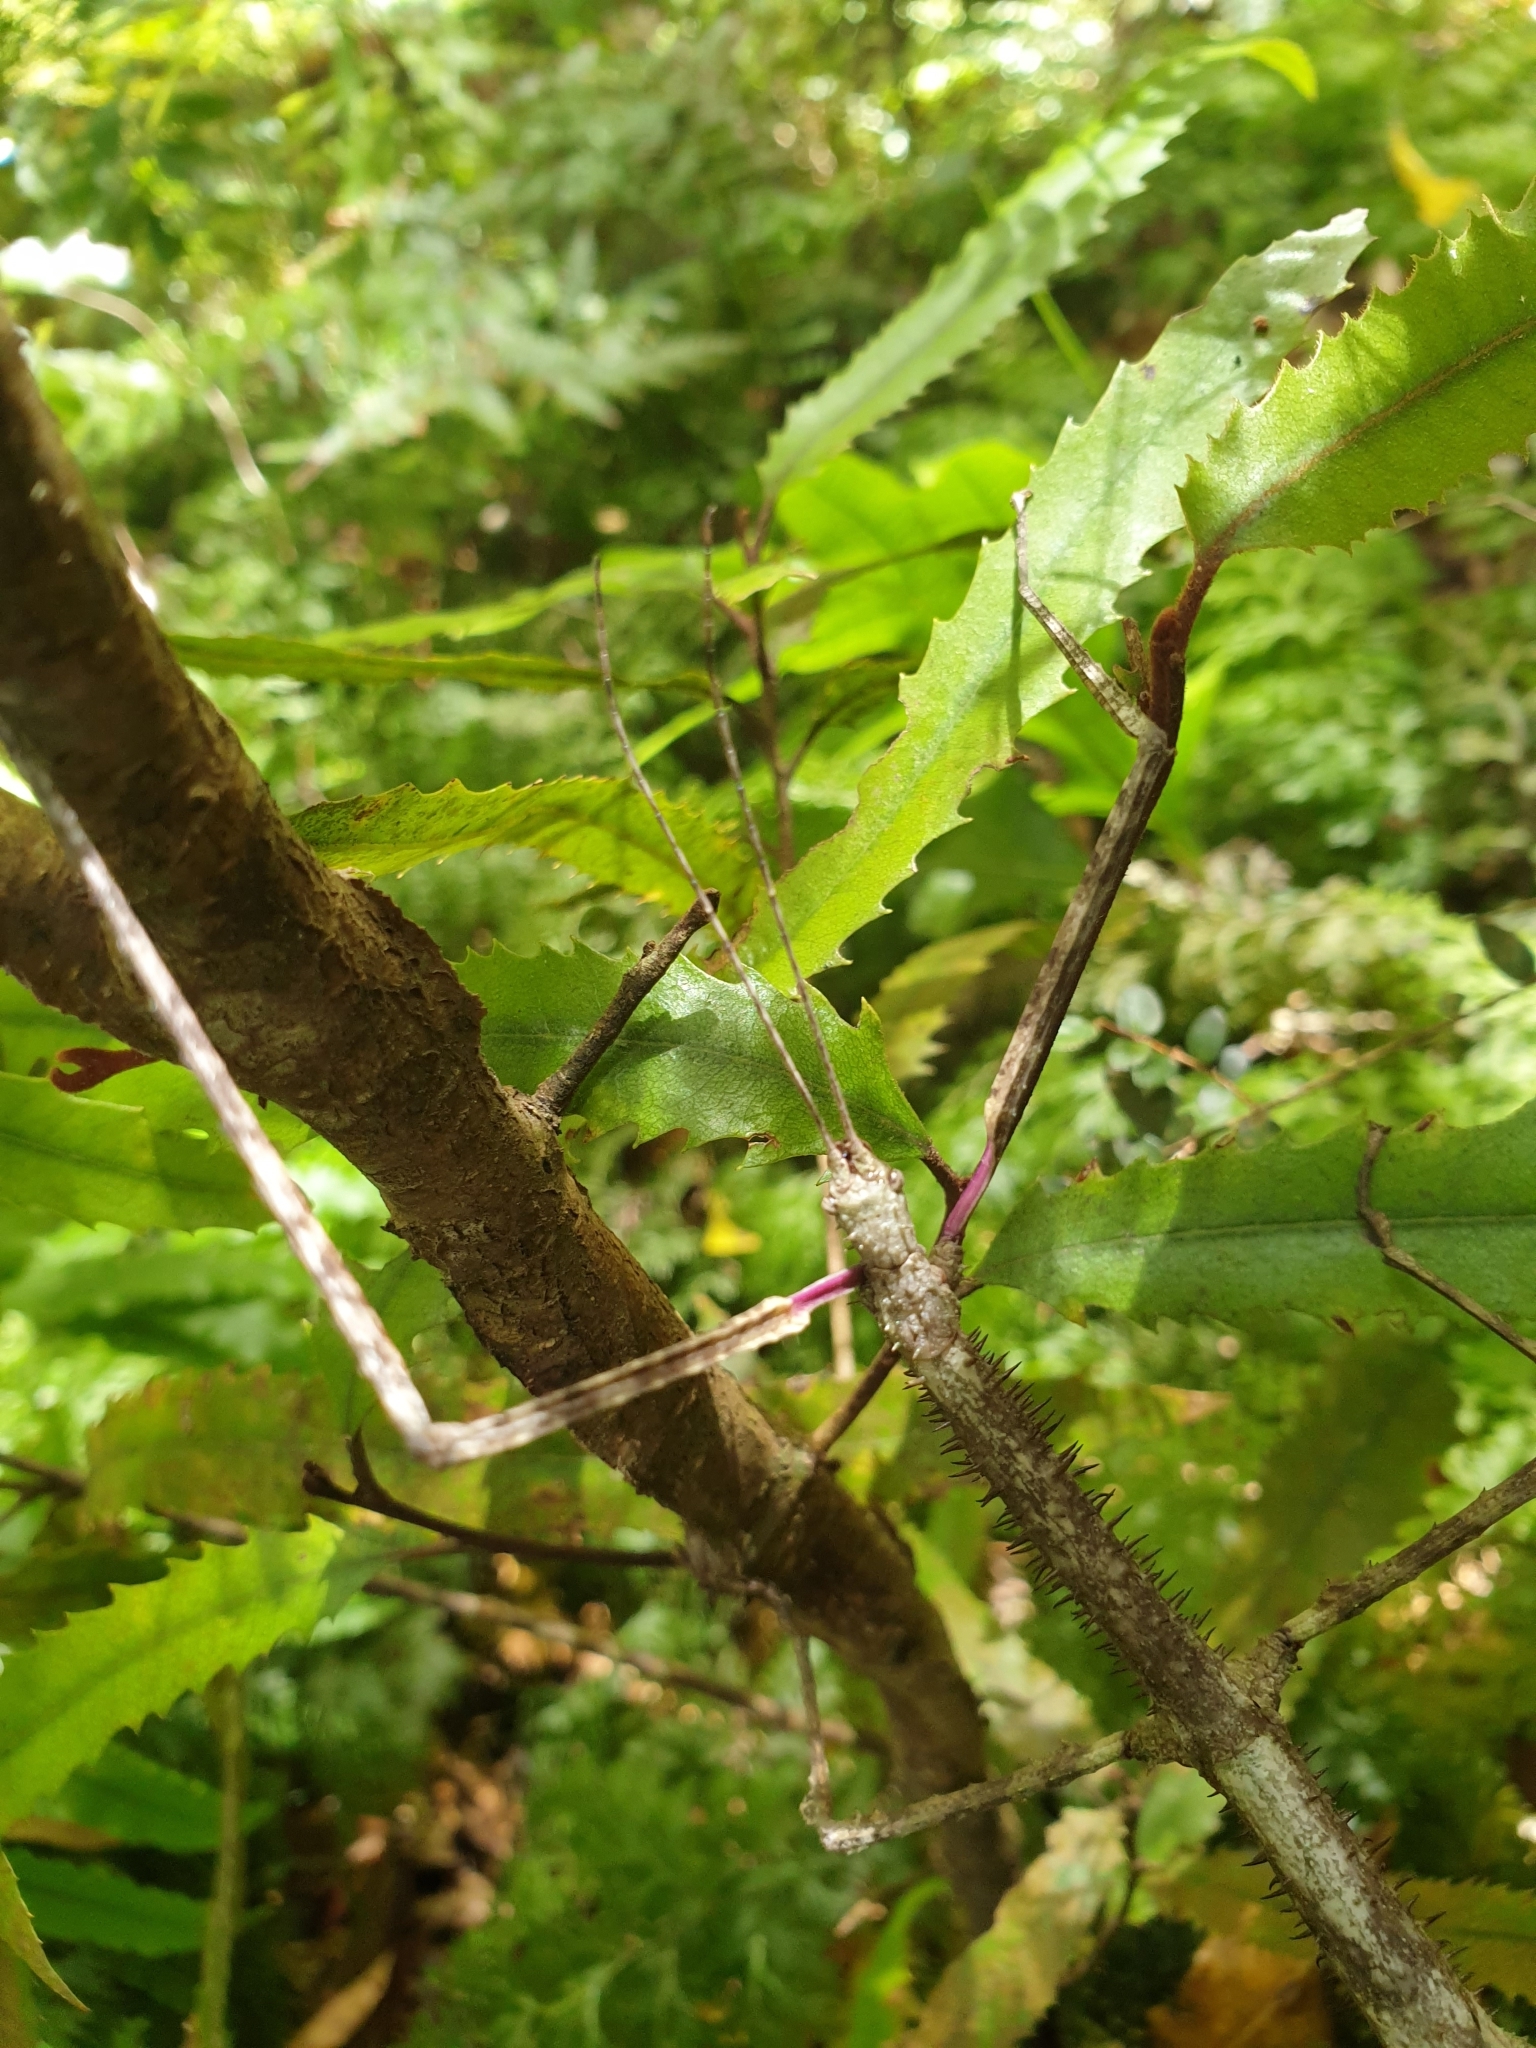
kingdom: Animalia
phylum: Arthropoda
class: Insecta
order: Phasmida
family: Phasmatidae
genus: Argosarchus
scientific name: Argosarchus horridus
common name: Bristly stick insect
